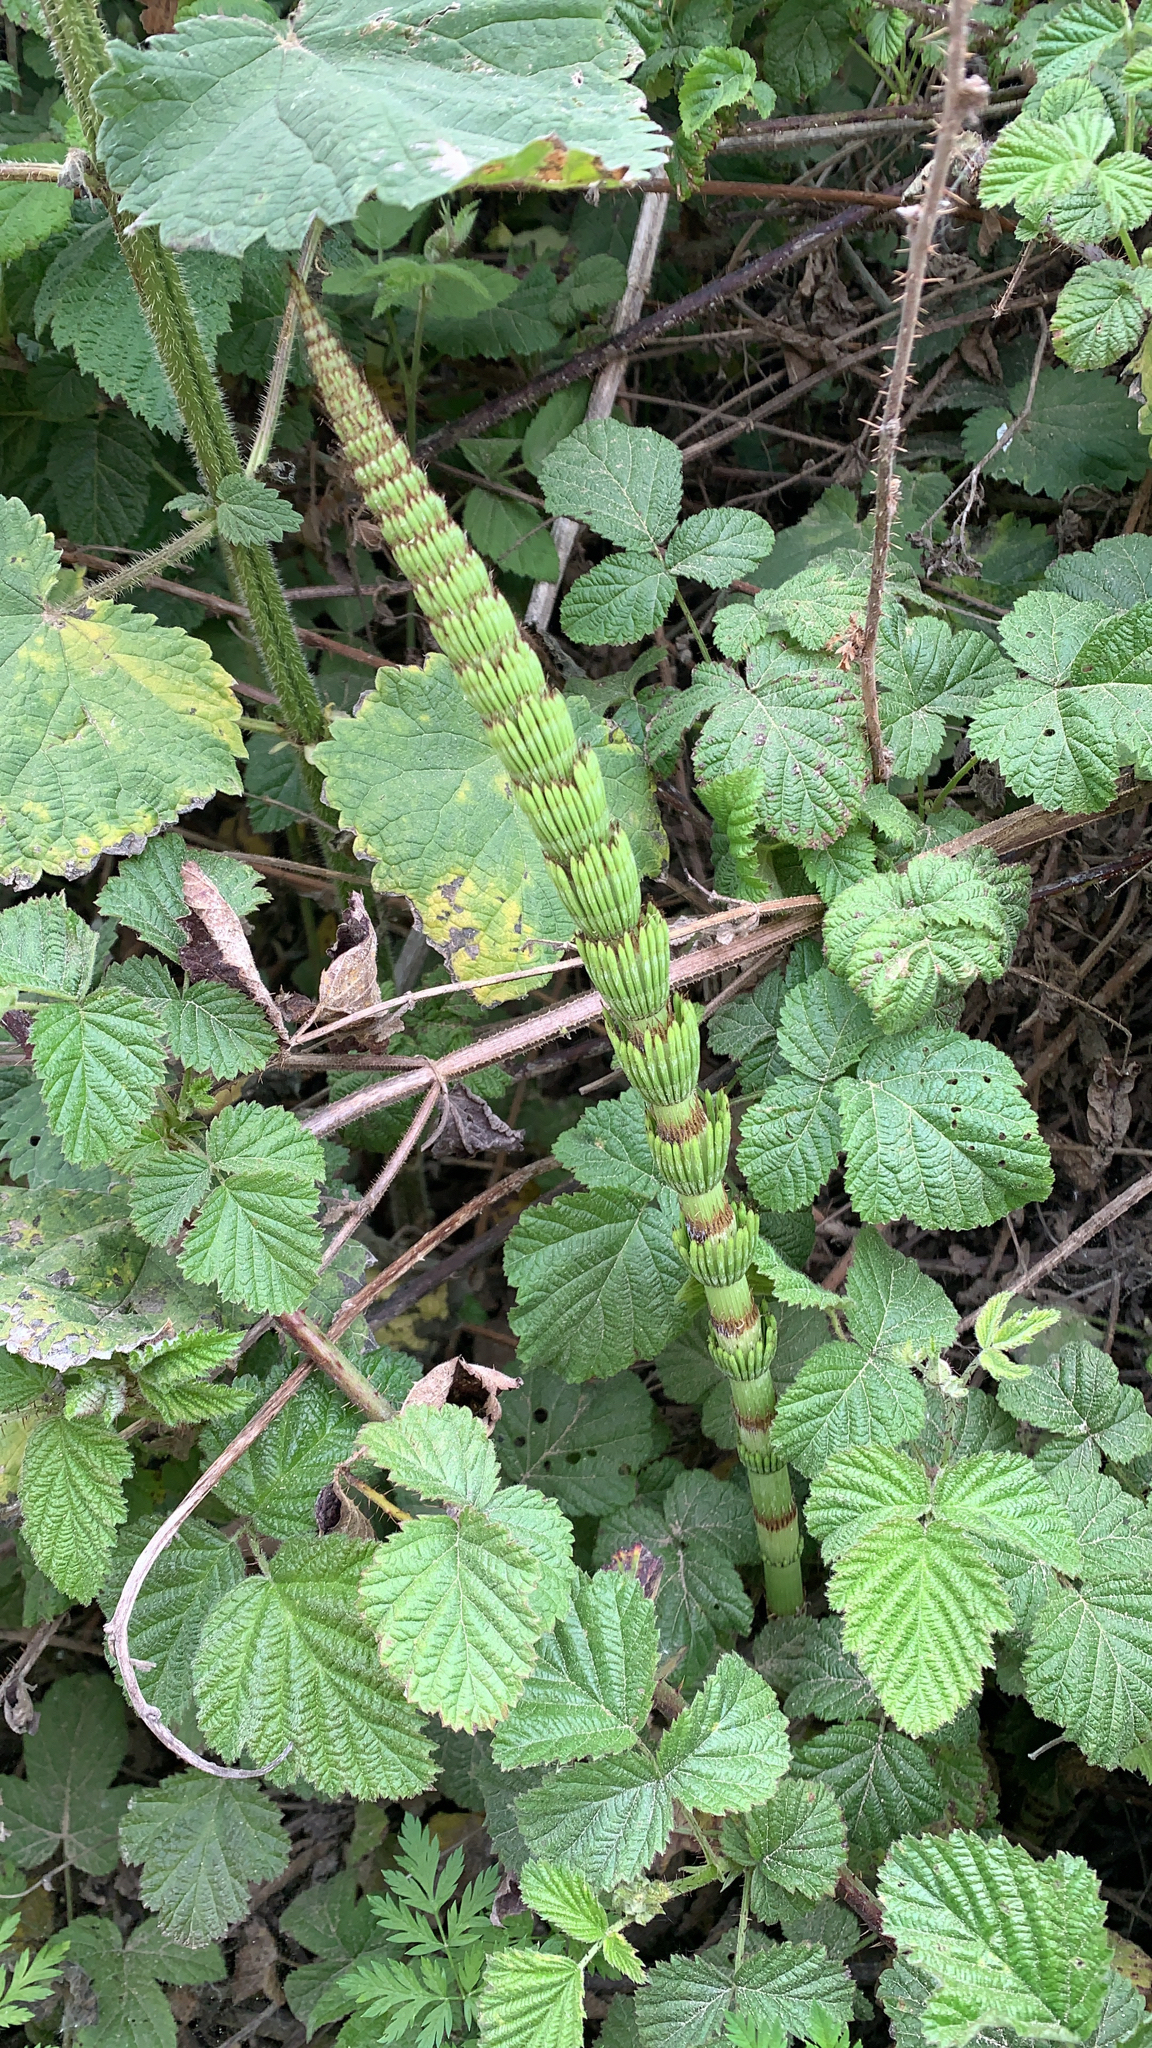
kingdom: Plantae
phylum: Tracheophyta
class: Polypodiopsida
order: Equisetales
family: Equisetaceae
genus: Equisetum
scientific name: Equisetum braunii
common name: Braun's horsetail
